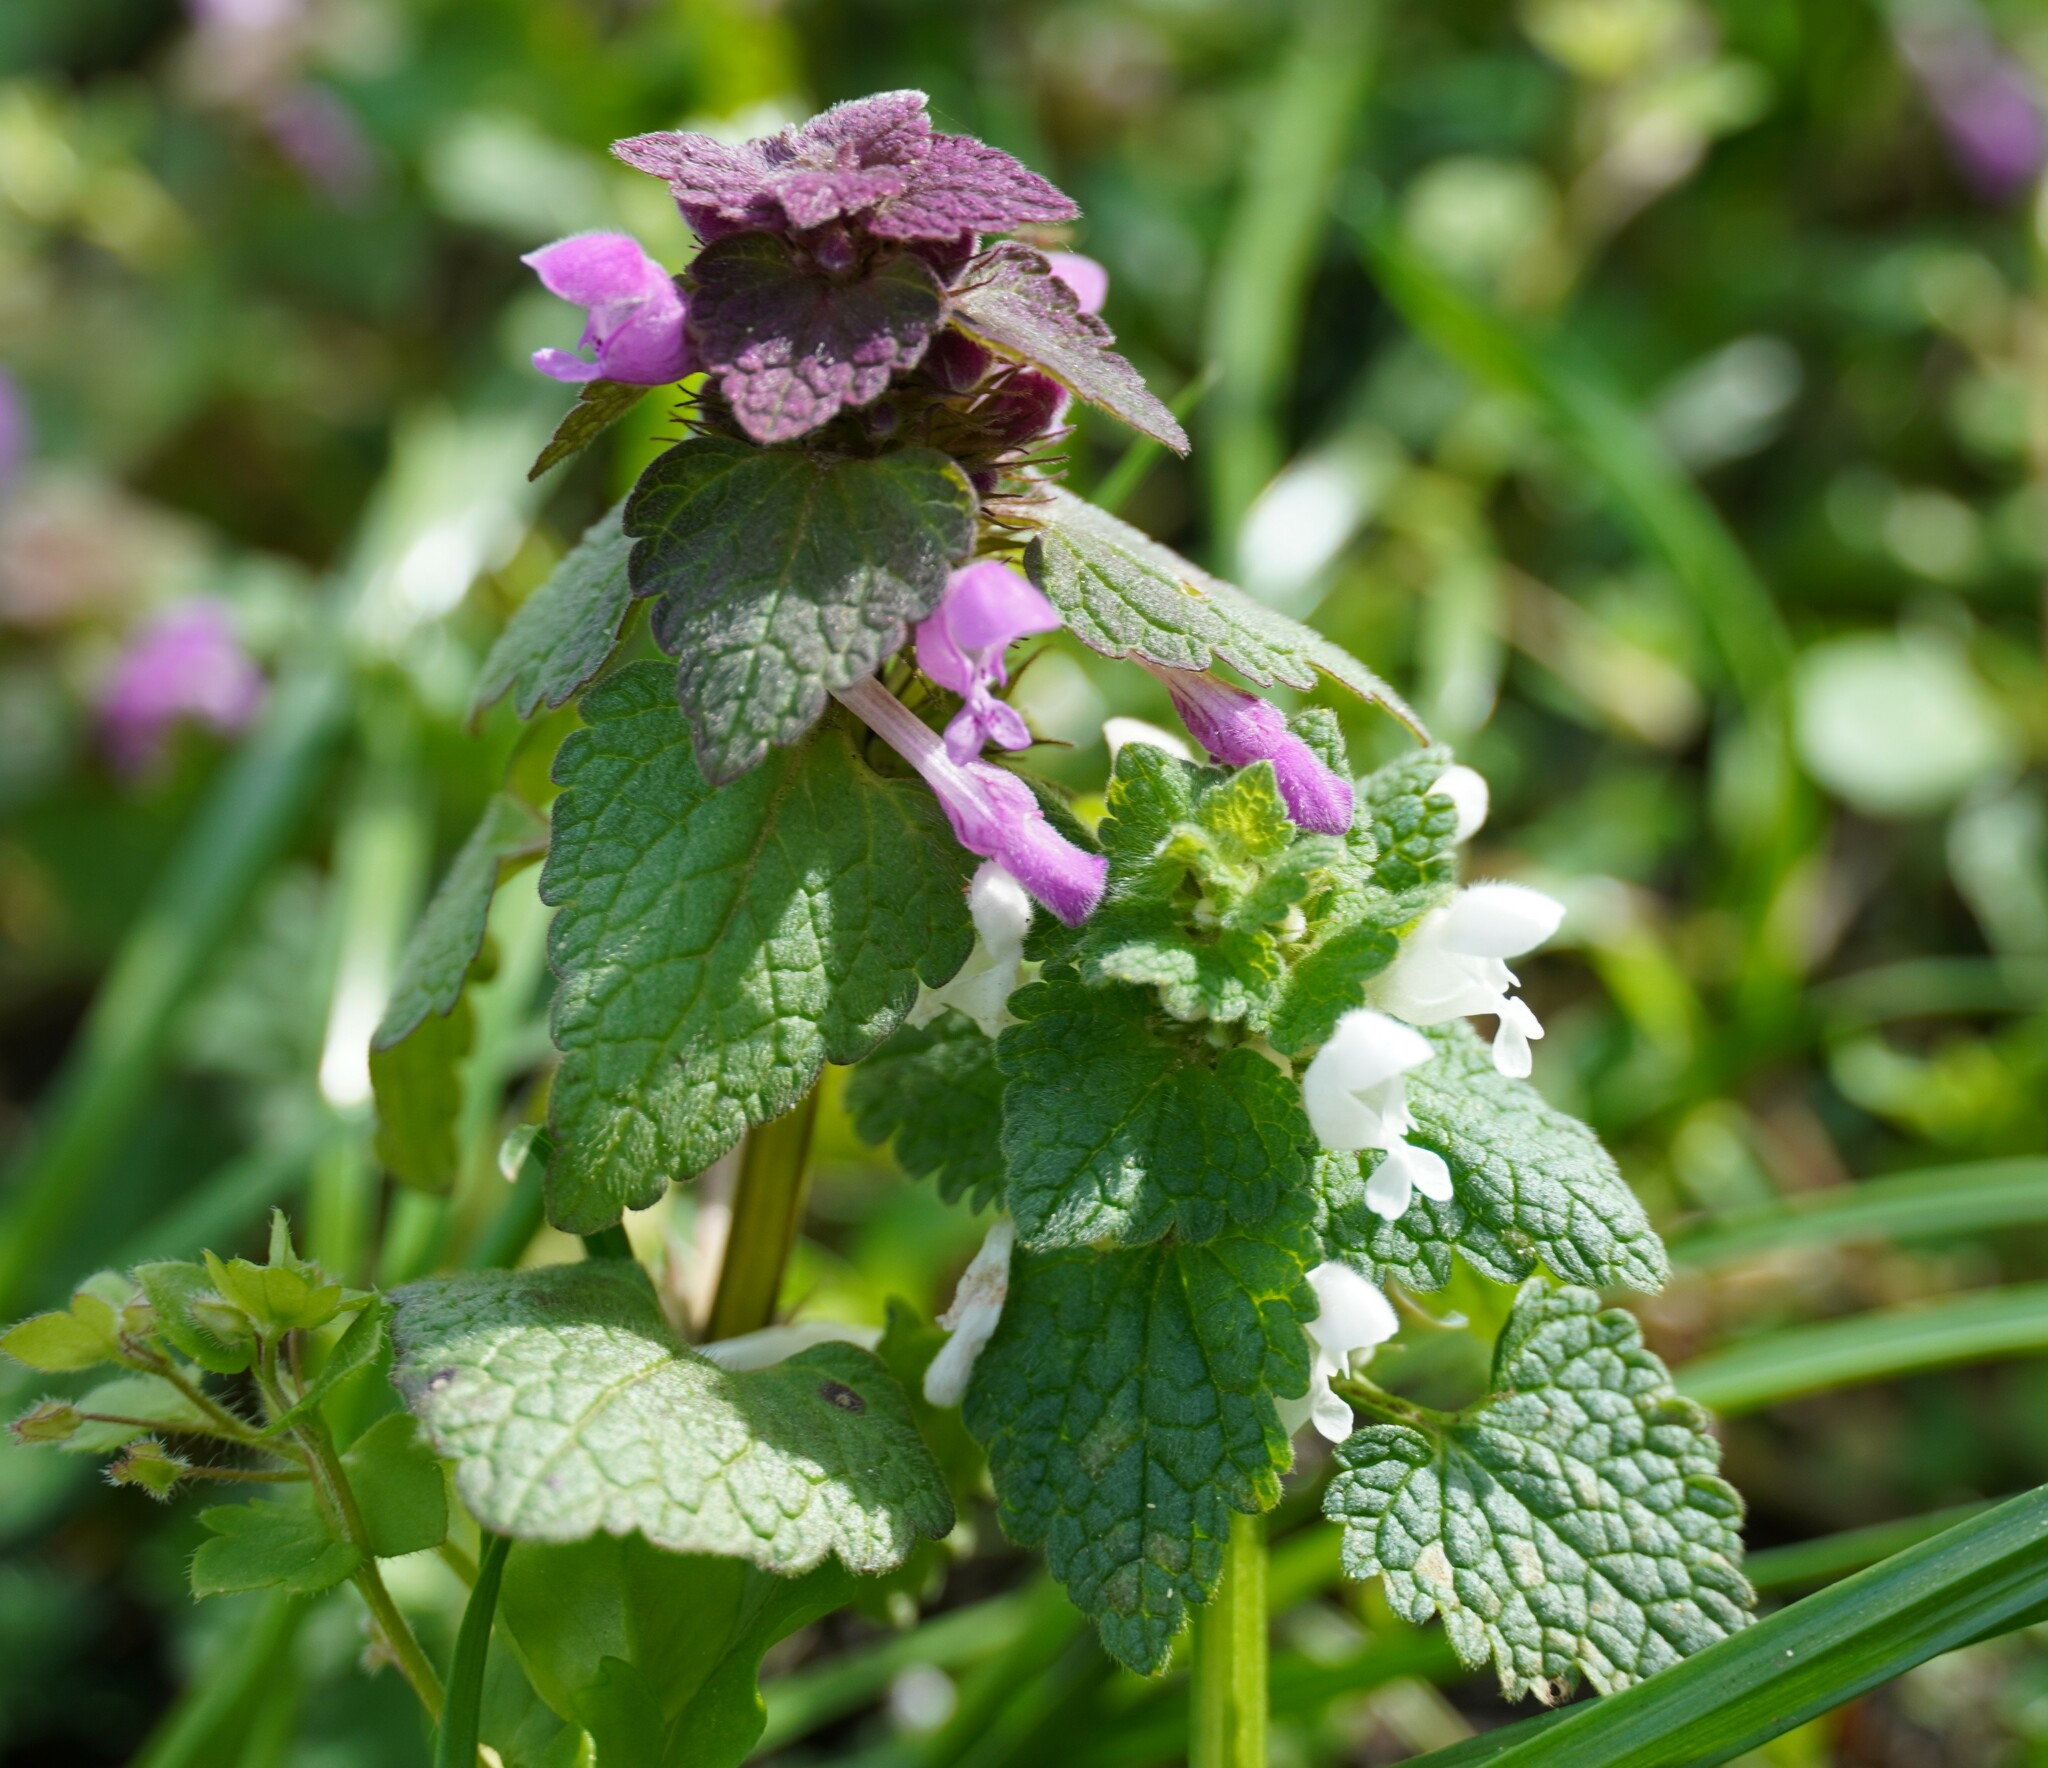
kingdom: Plantae
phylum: Tracheophyta
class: Magnoliopsida
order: Lamiales
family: Lamiaceae
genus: Lamium
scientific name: Lamium purpureum
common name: Red dead-nettle
